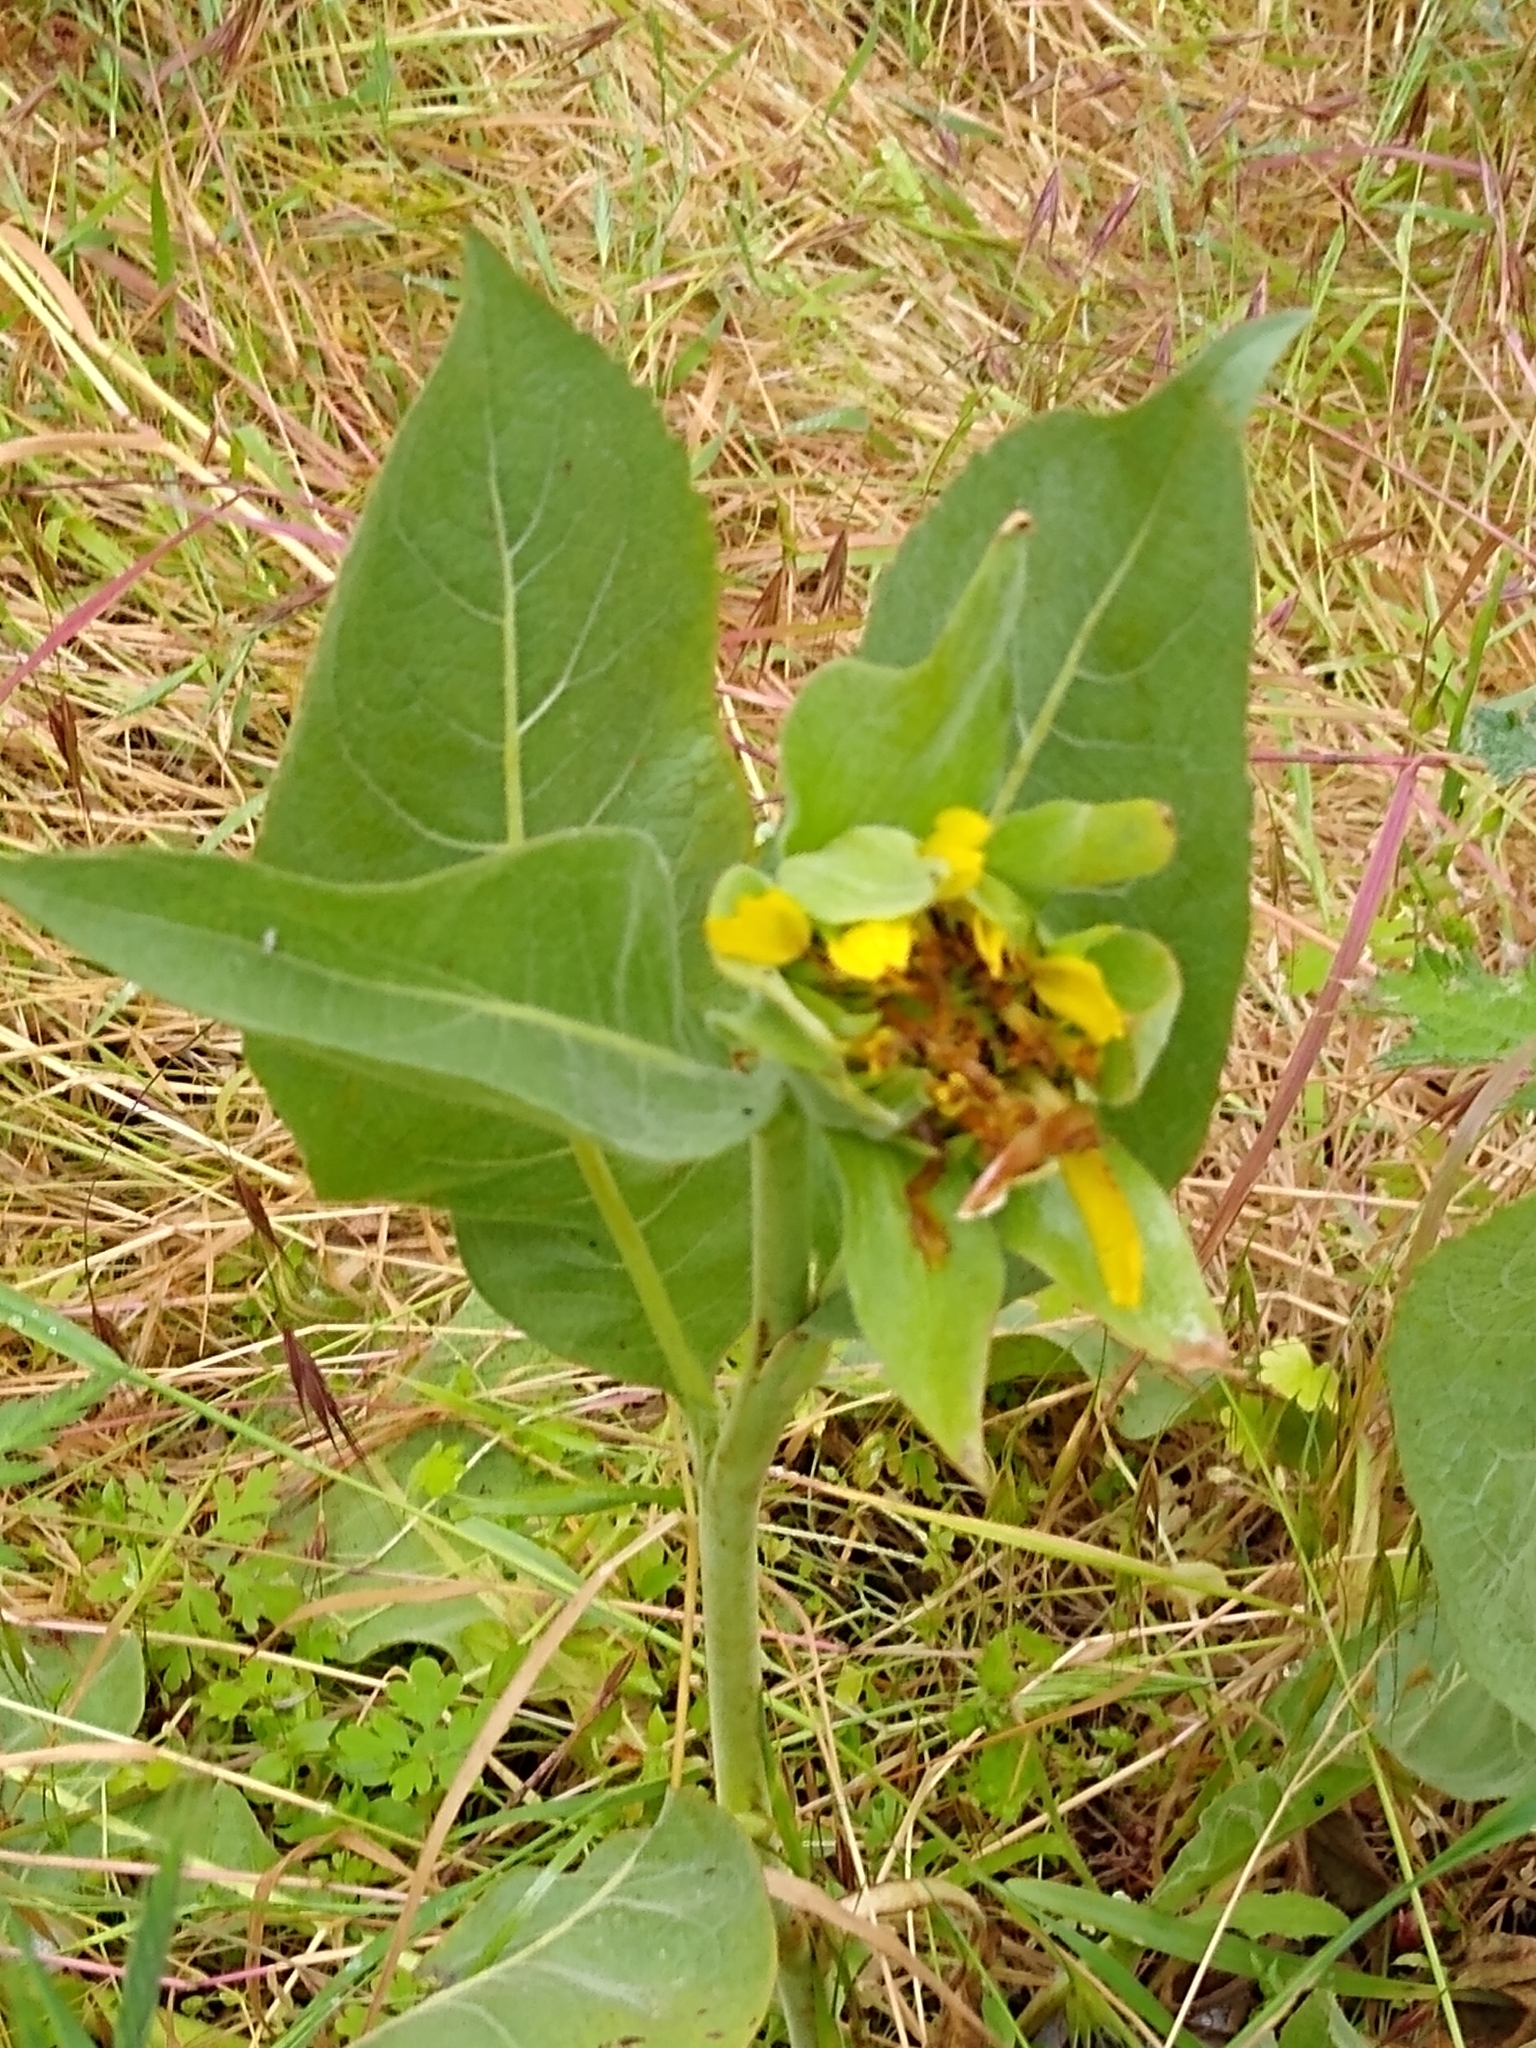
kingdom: Plantae
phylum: Tracheophyta
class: Magnoliopsida
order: Asterales
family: Asteraceae
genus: Wyethia
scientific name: Wyethia glabra
